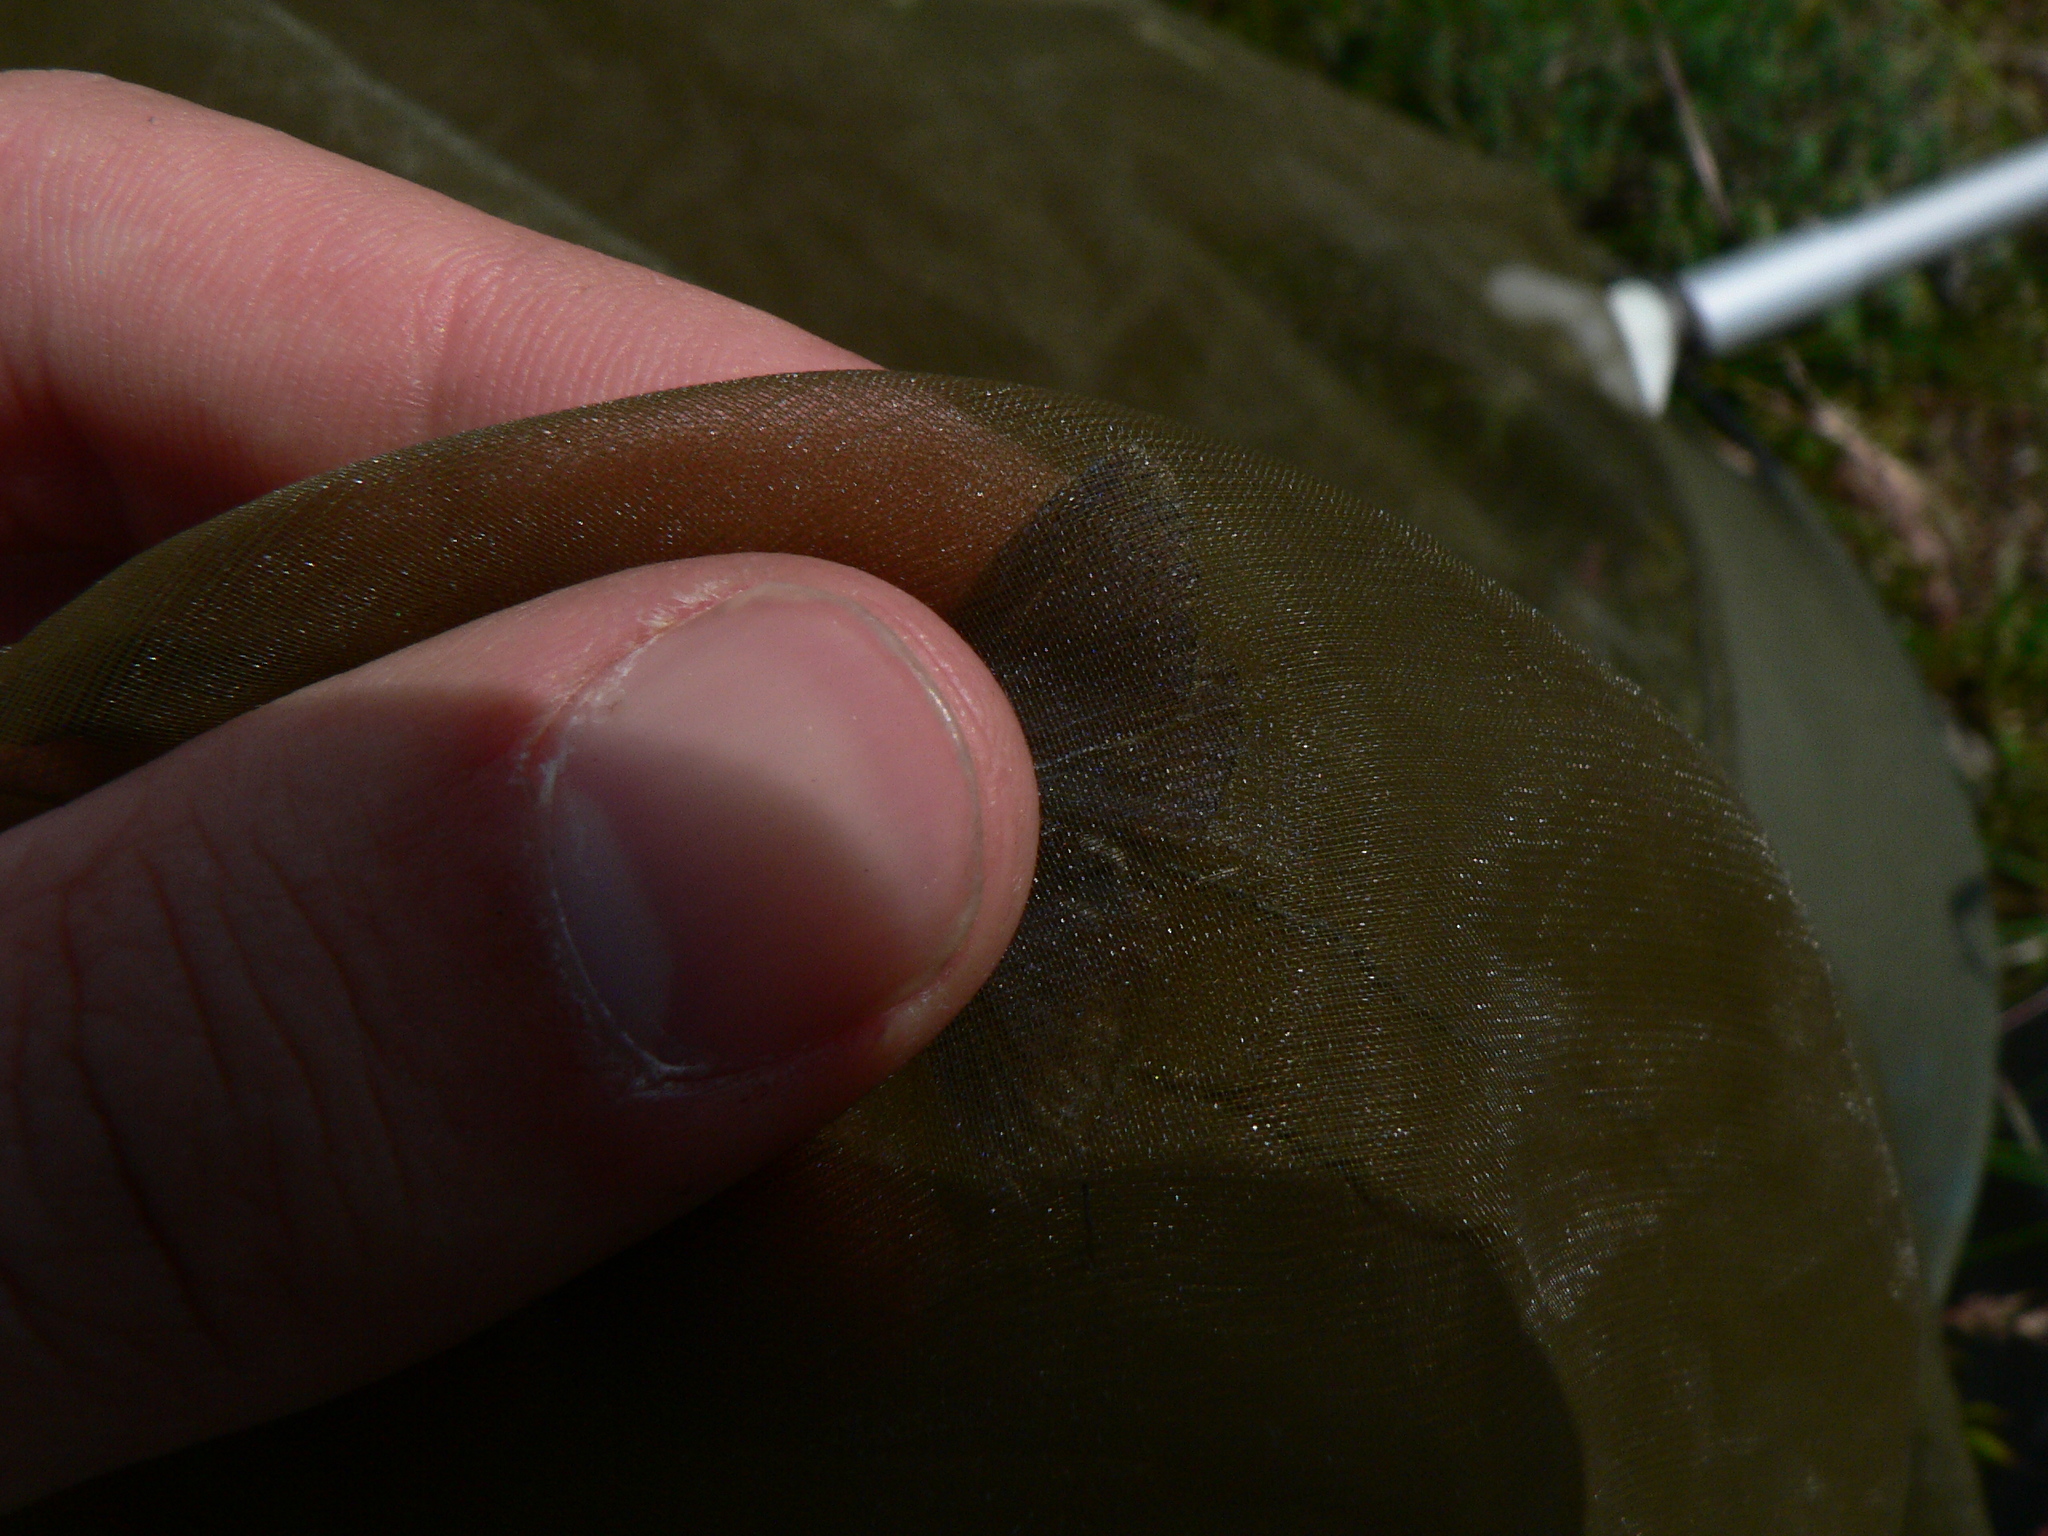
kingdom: Animalia
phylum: Arthropoda
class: Insecta
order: Lepidoptera
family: Lycaenidae
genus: Polyommatus
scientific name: Polyommatus thersites
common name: Chapman's blue
